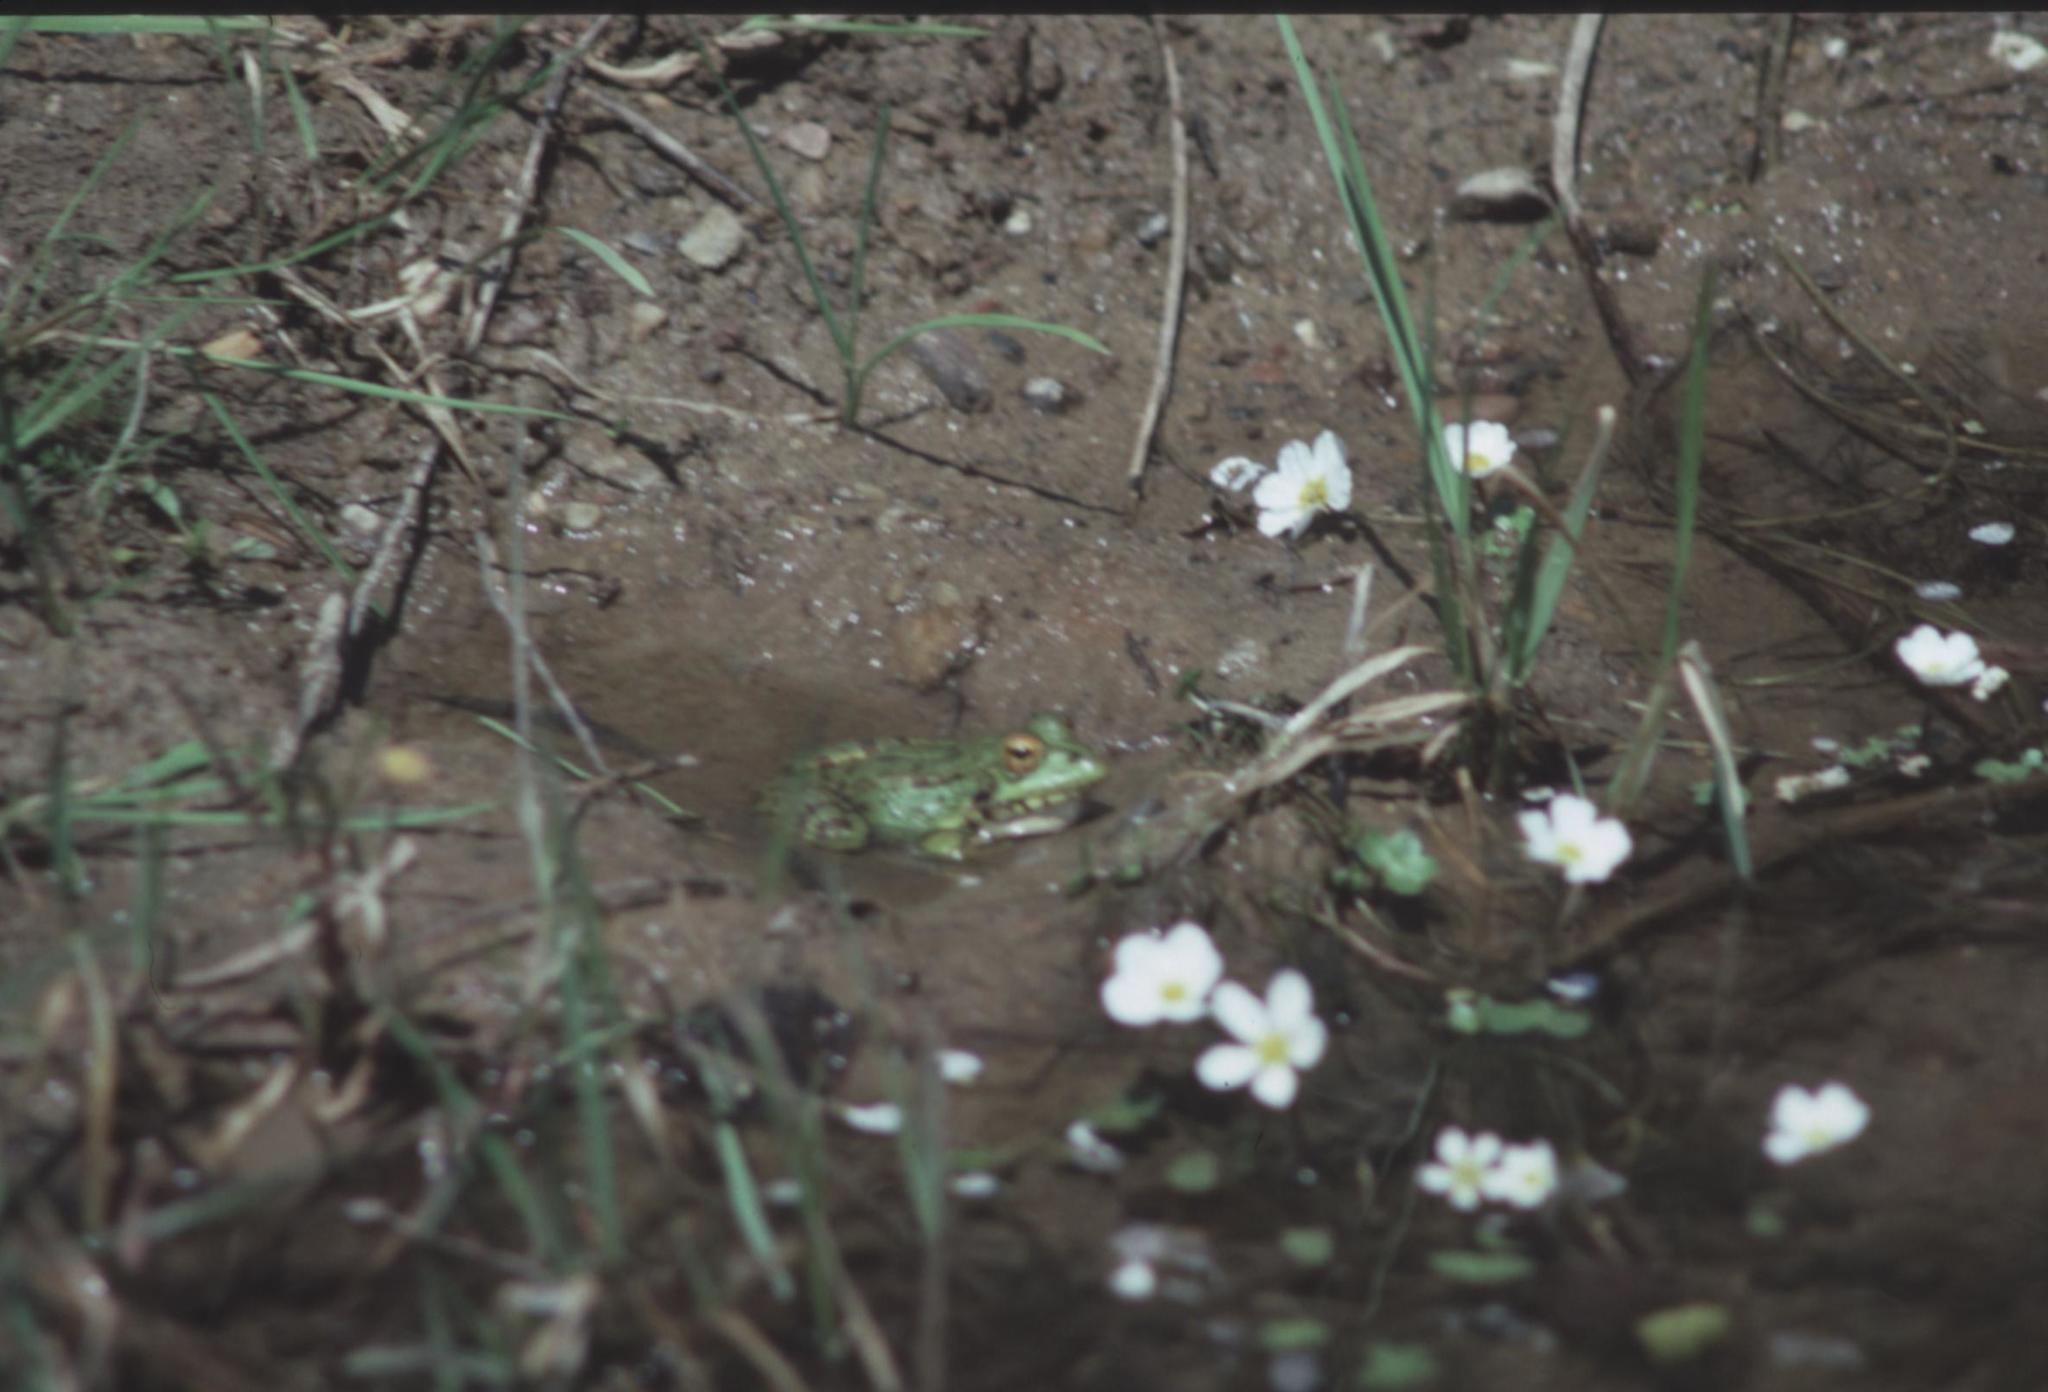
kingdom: Animalia
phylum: Chordata
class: Amphibia
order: Anura
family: Ranidae
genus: Pelophylax
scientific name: Pelophylax perezi
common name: Perez's frog
